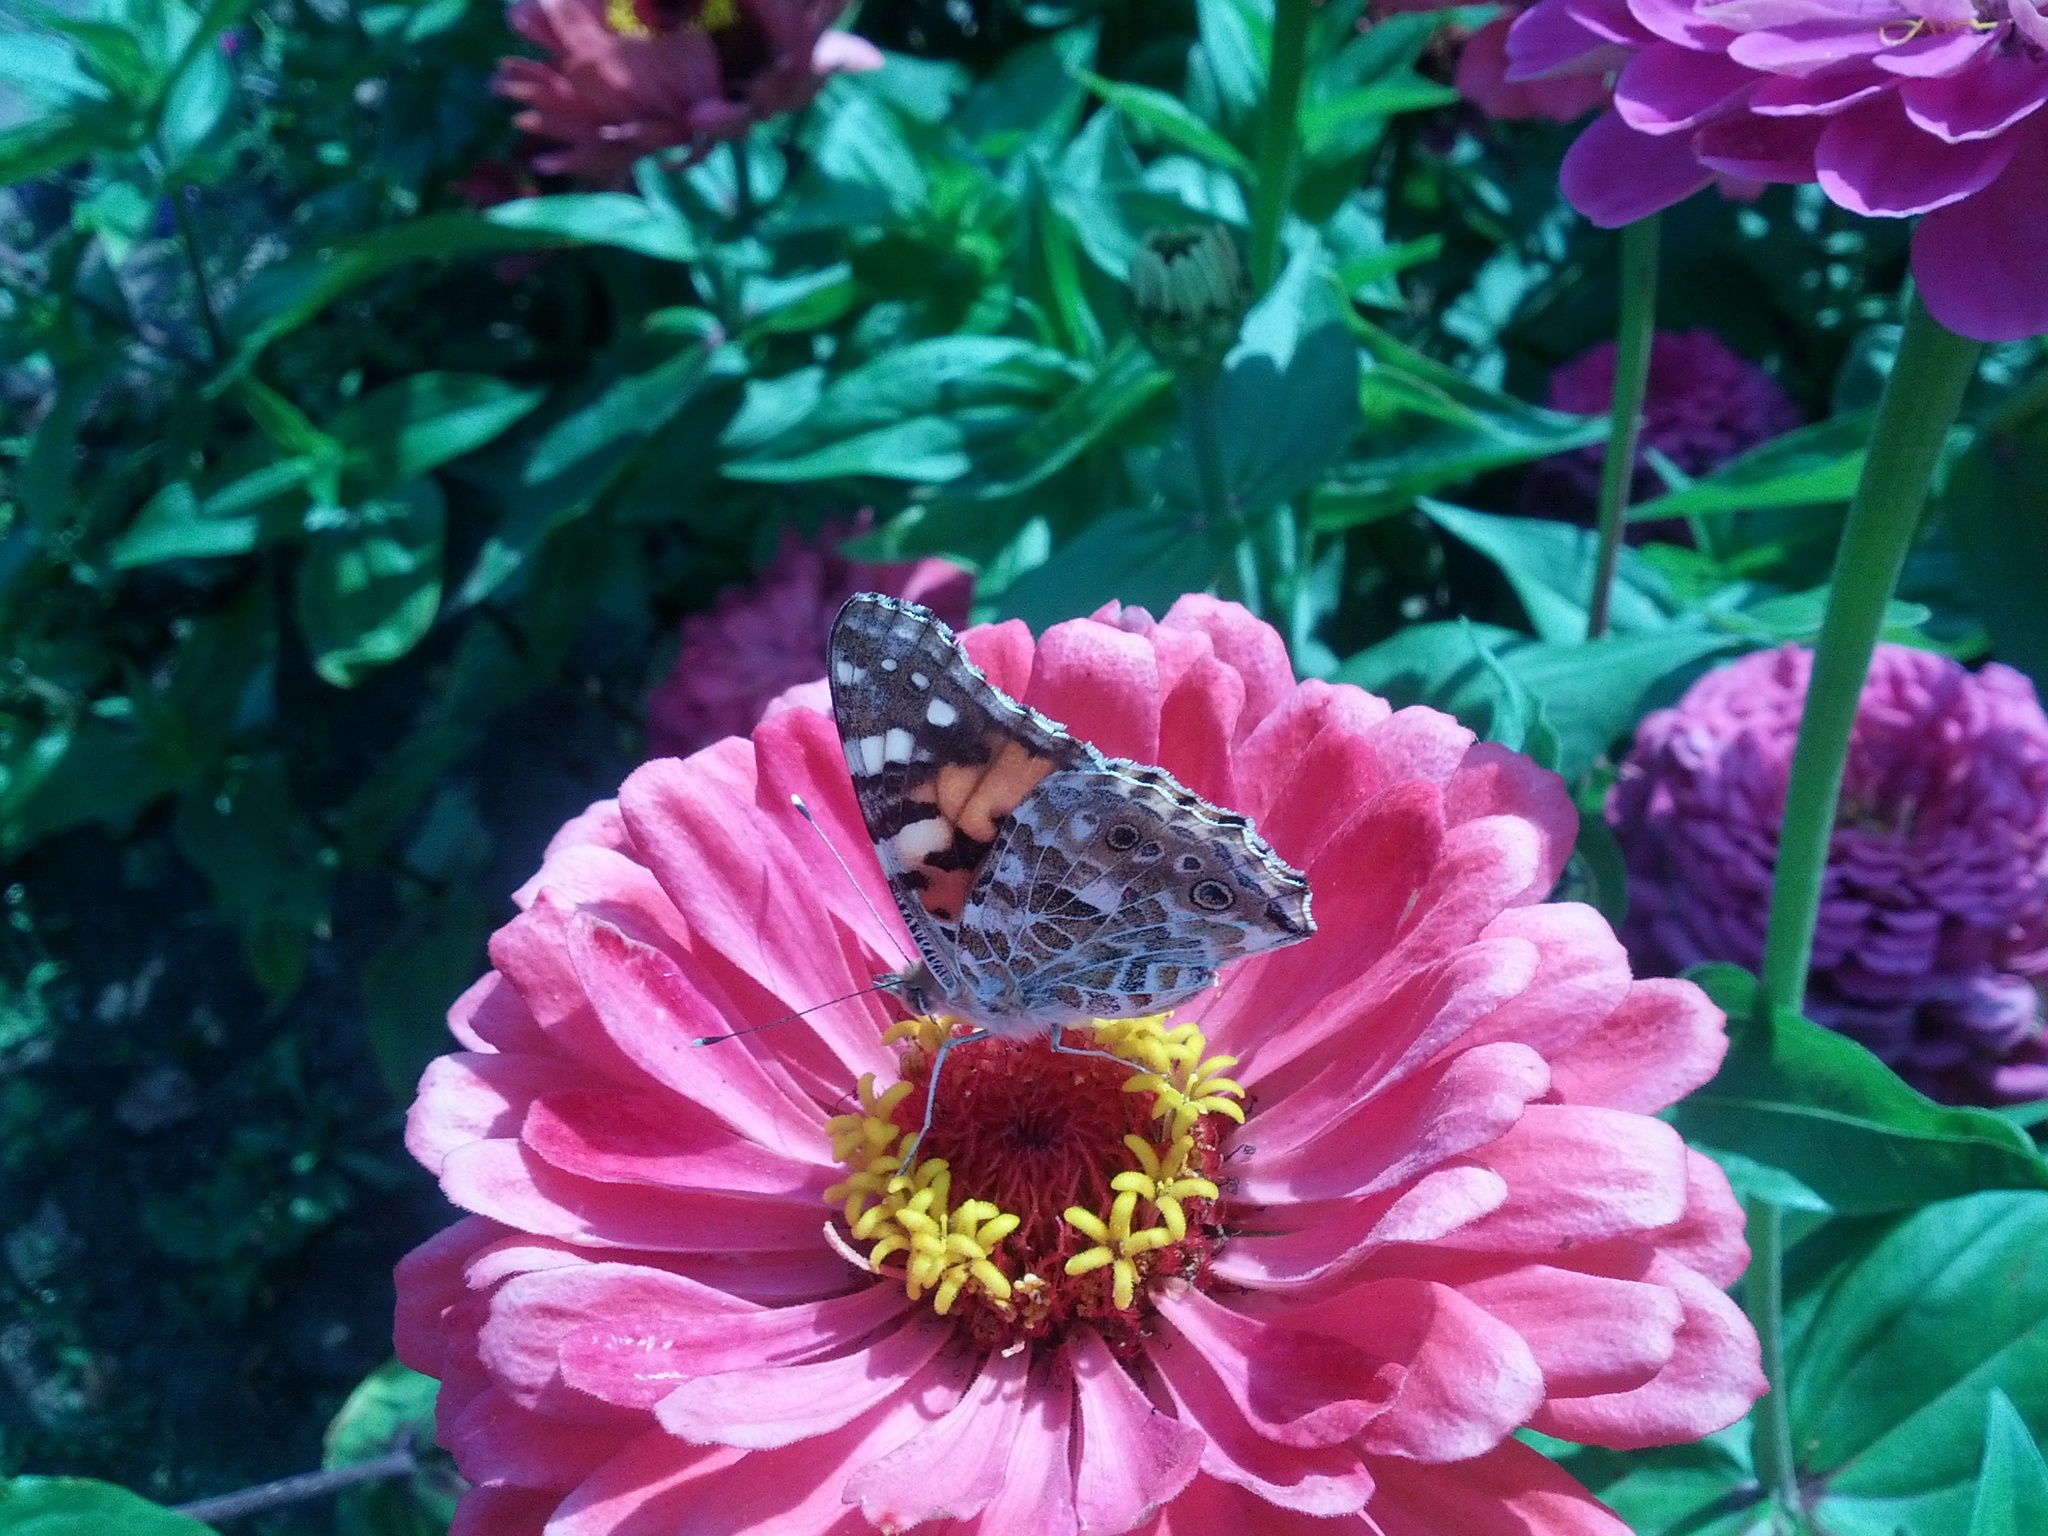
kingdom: Animalia
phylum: Arthropoda
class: Insecta
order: Lepidoptera
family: Nymphalidae
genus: Vanessa
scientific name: Vanessa cardui
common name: Painted lady
